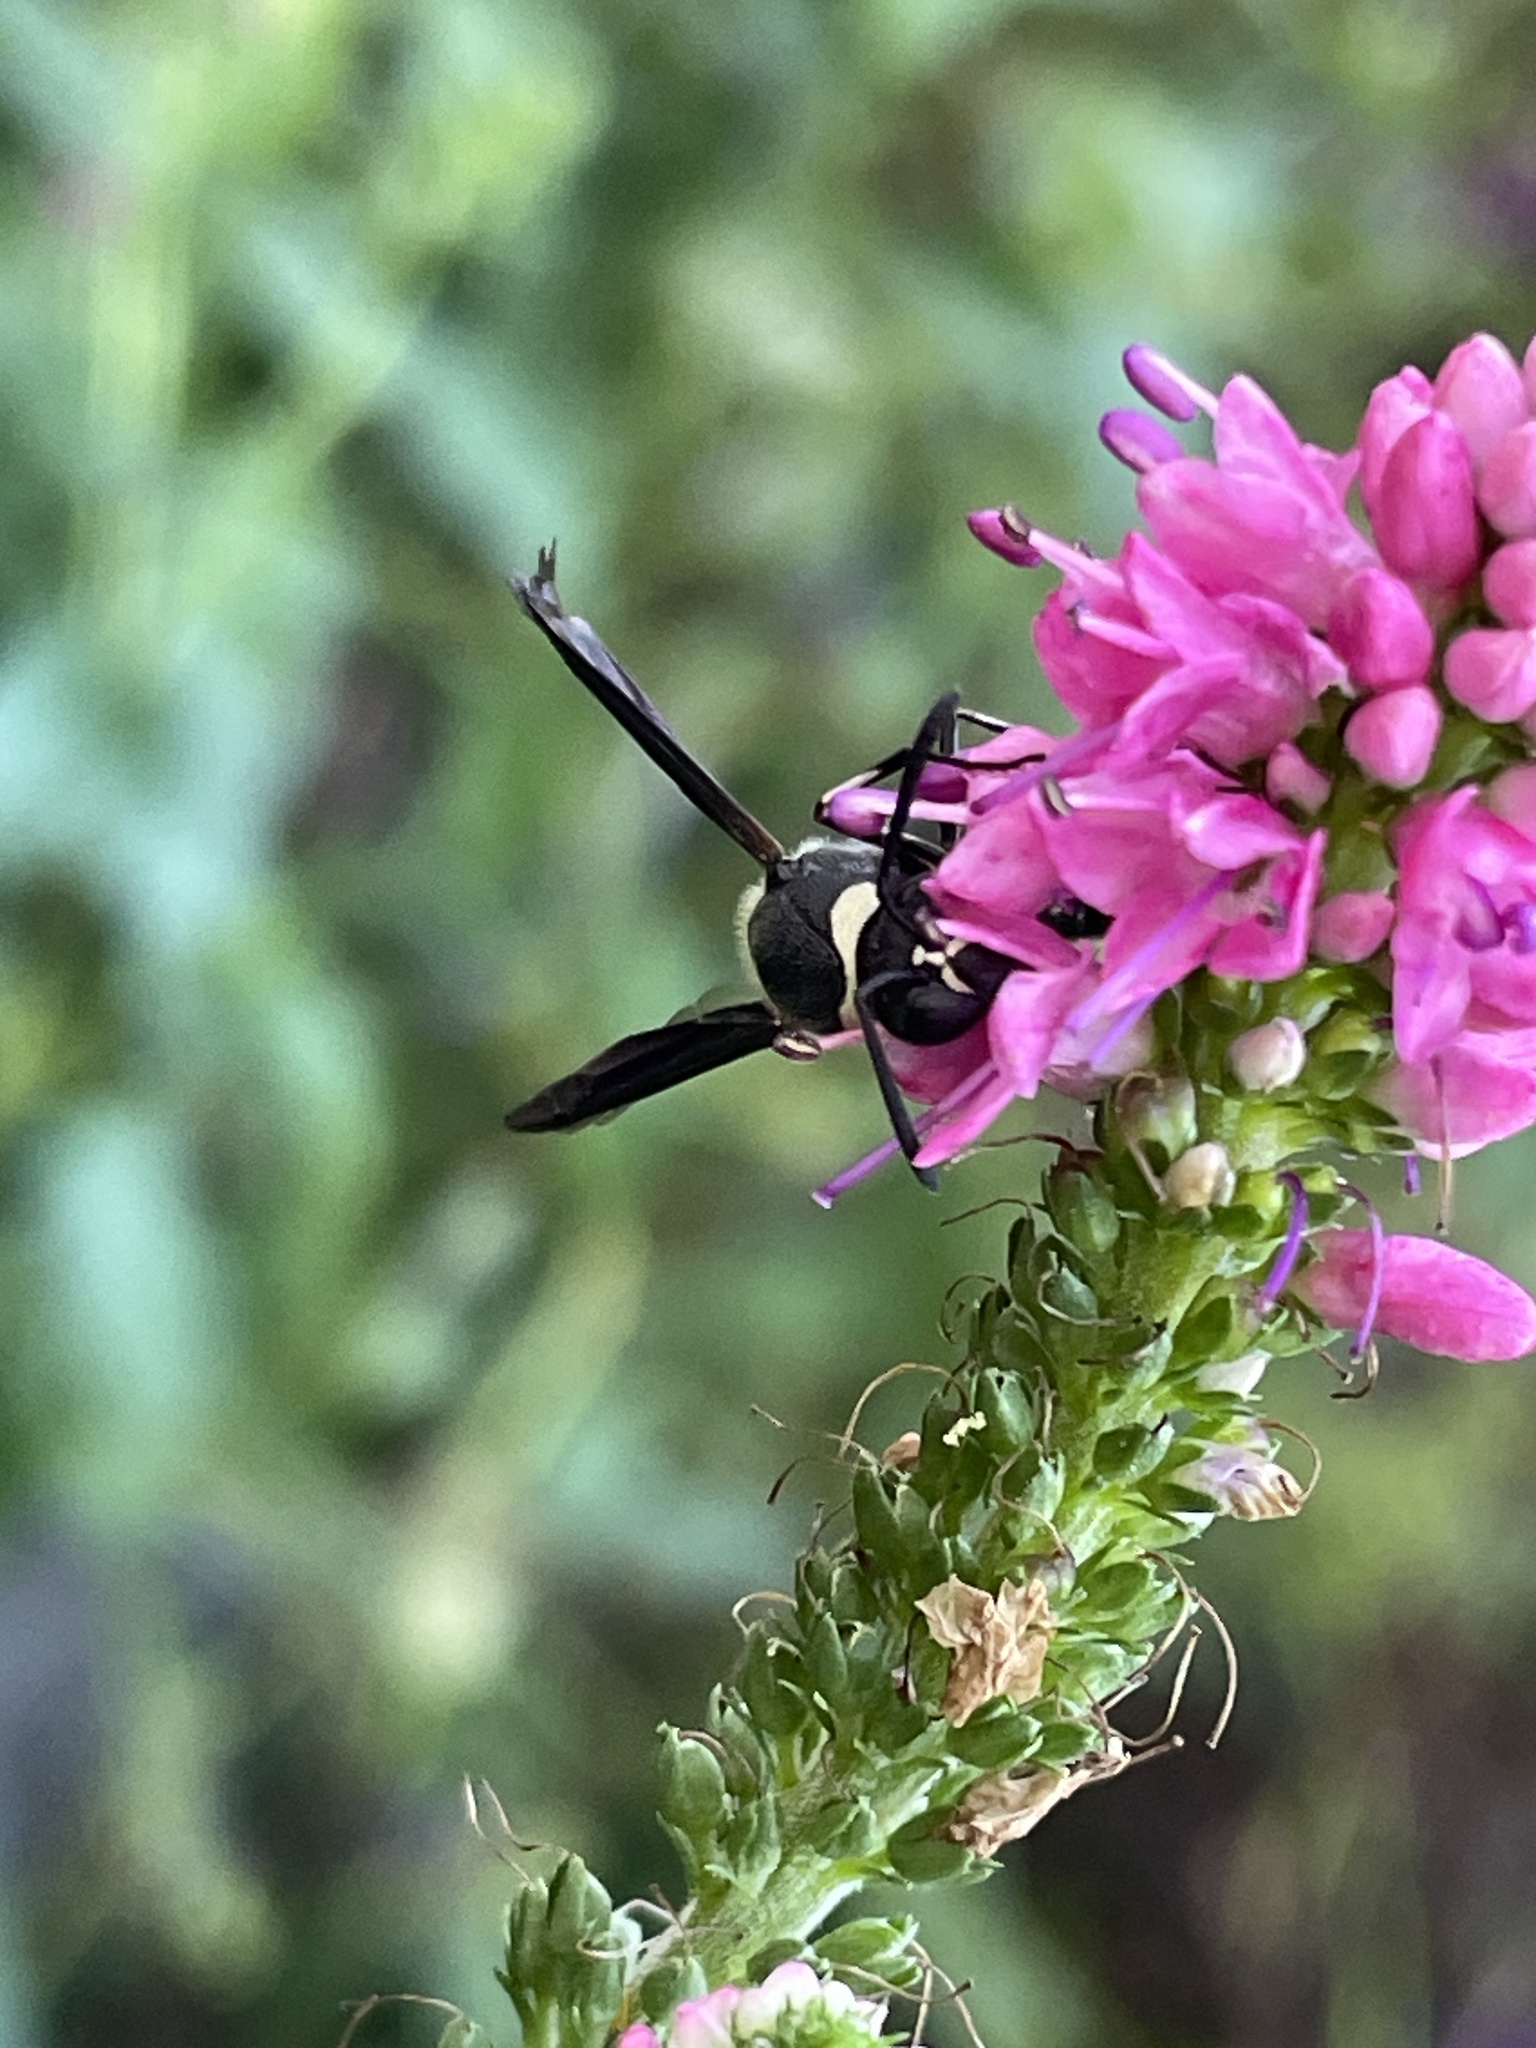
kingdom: Animalia
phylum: Arthropoda
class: Insecta
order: Hymenoptera
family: Vespidae
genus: Eumenes
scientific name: Eumenes fraternus
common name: Fraternal potter wasp
